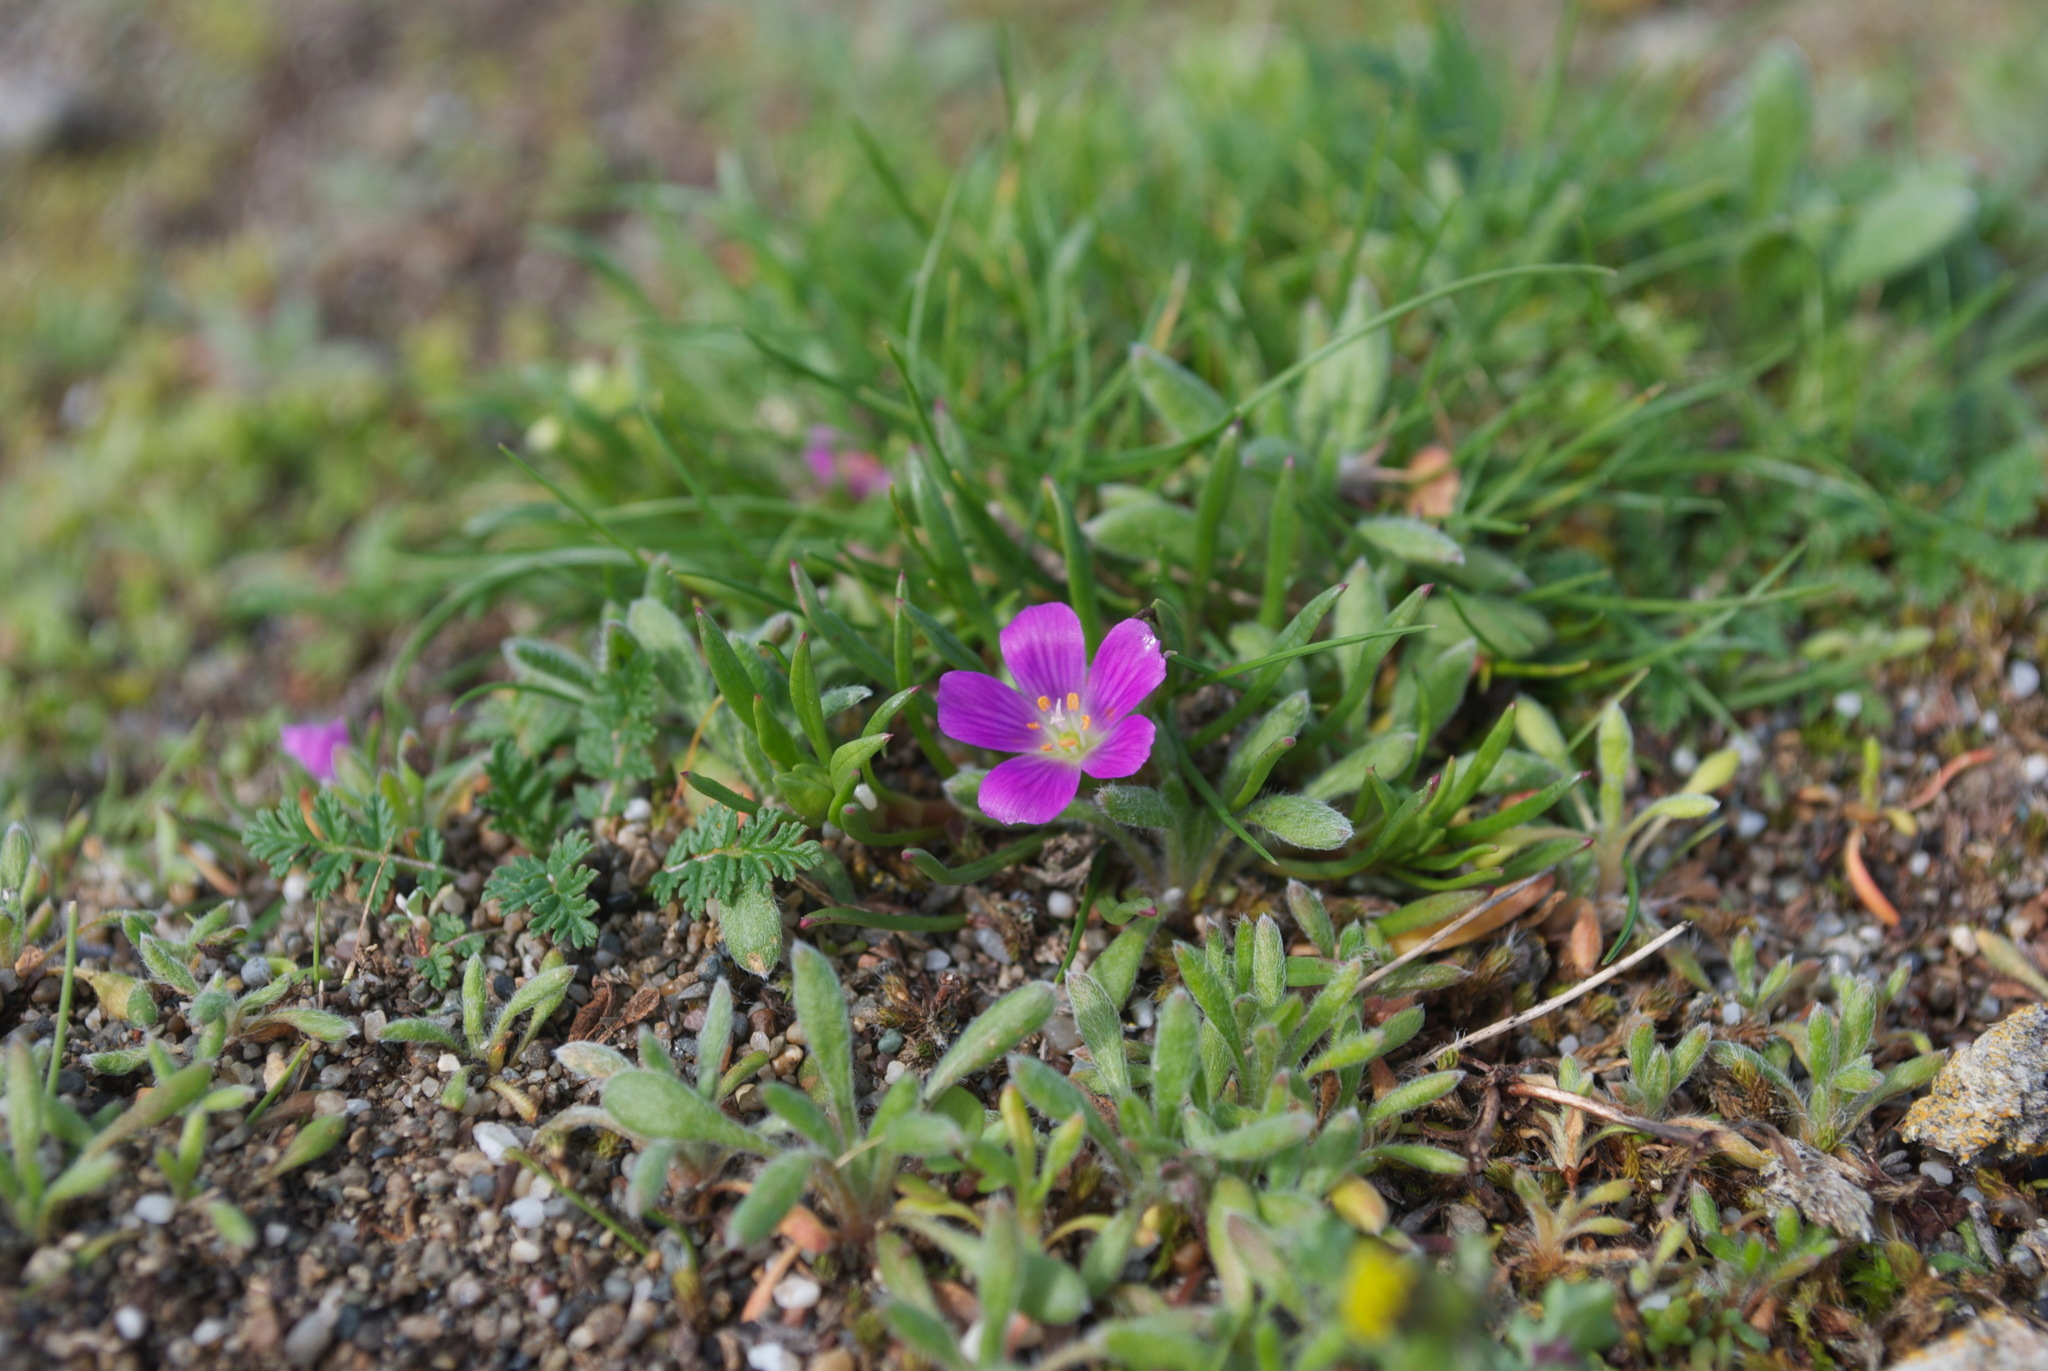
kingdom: Plantae
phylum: Tracheophyta
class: Magnoliopsida
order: Caryophyllales
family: Montiaceae
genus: Calandrinia
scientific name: Calandrinia menziesii
